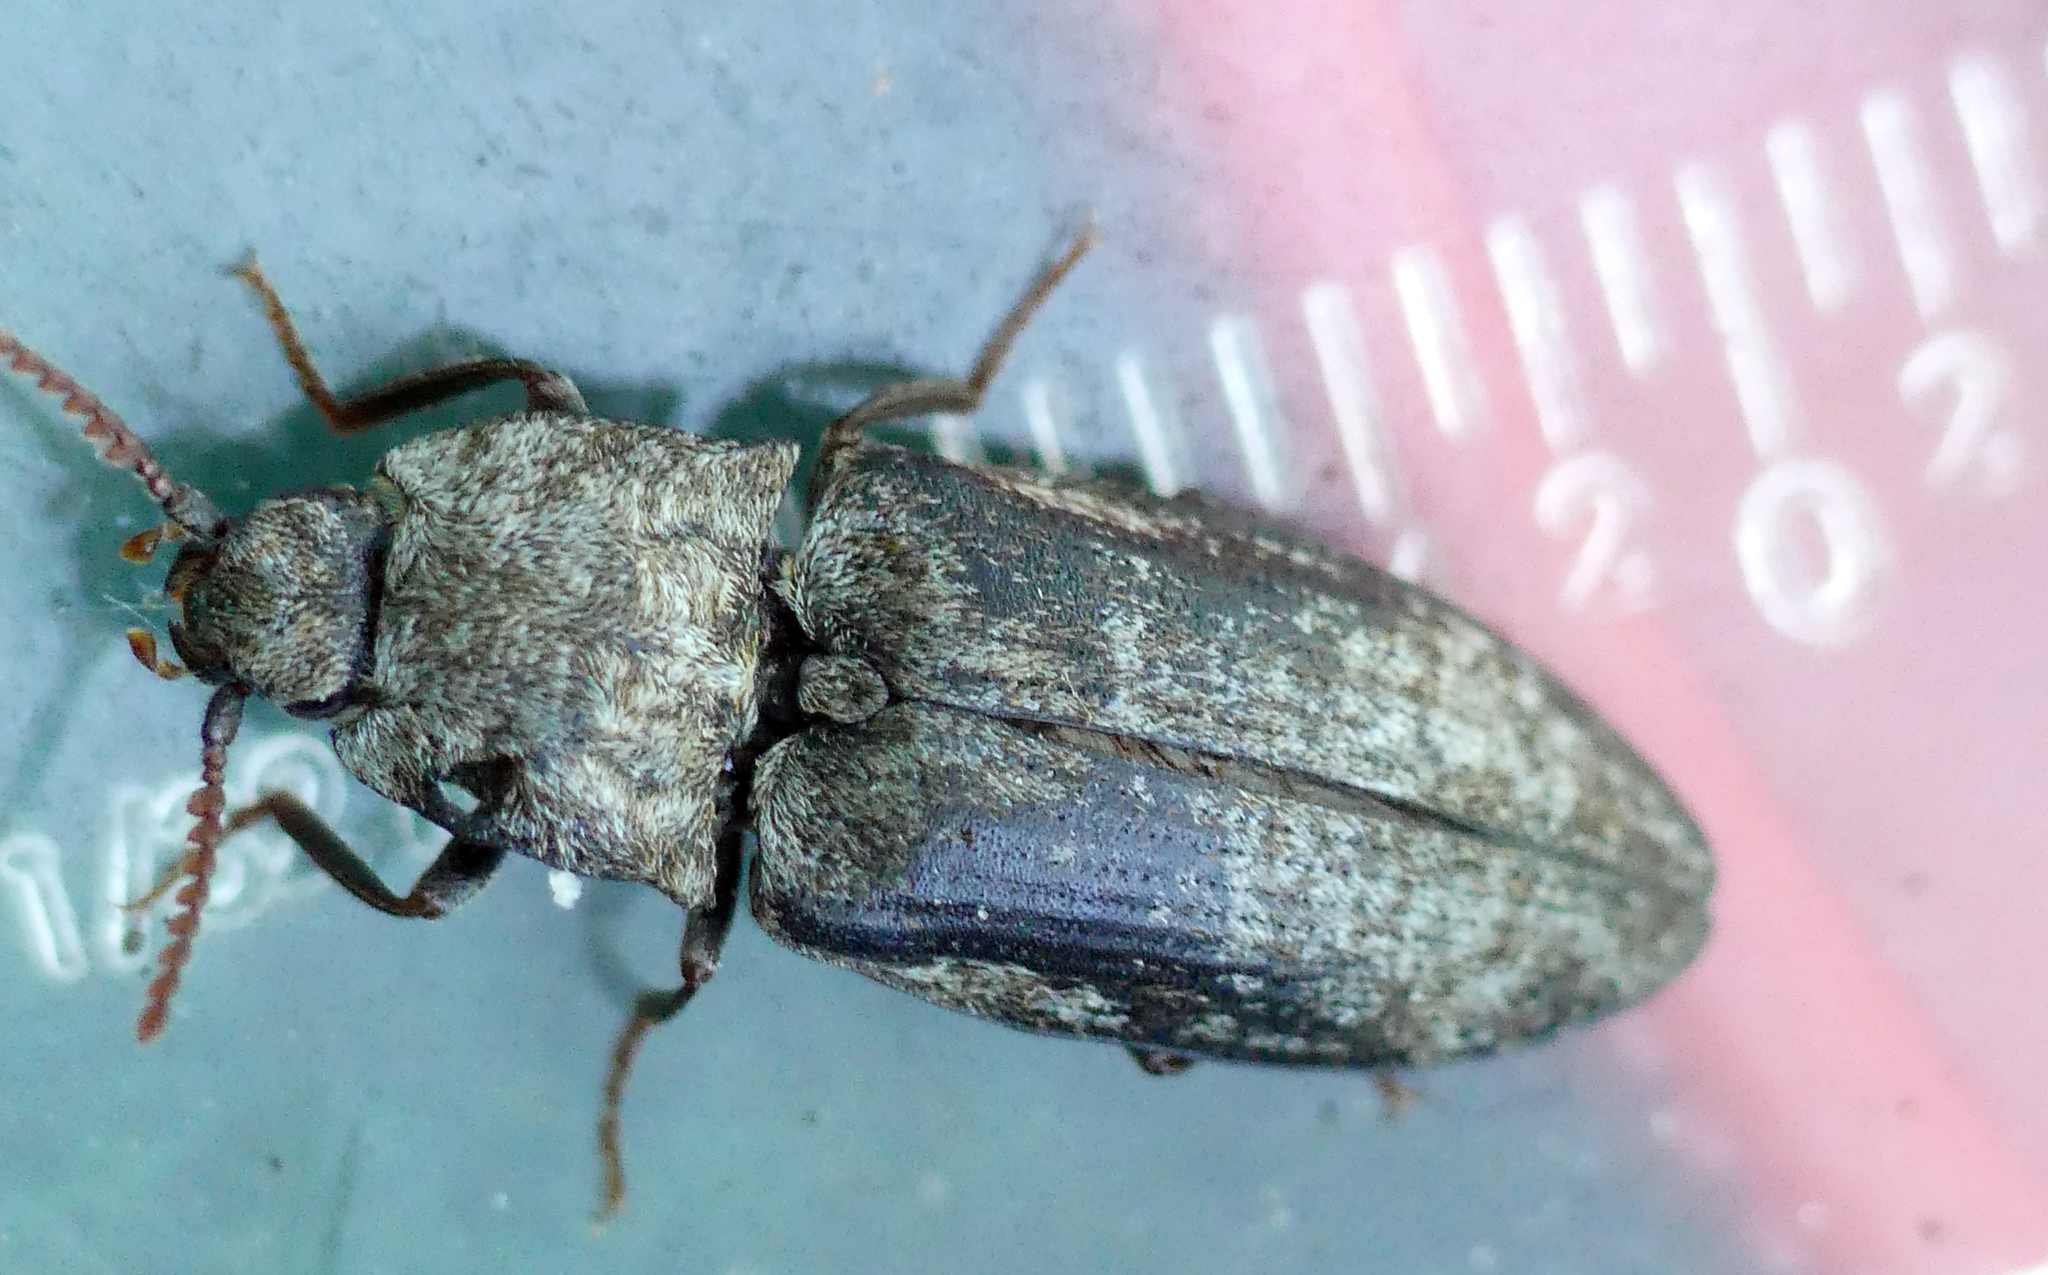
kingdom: Animalia
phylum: Arthropoda
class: Insecta
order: Coleoptera
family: Elateridae
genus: Agrypnus
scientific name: Agrypnus murinus
